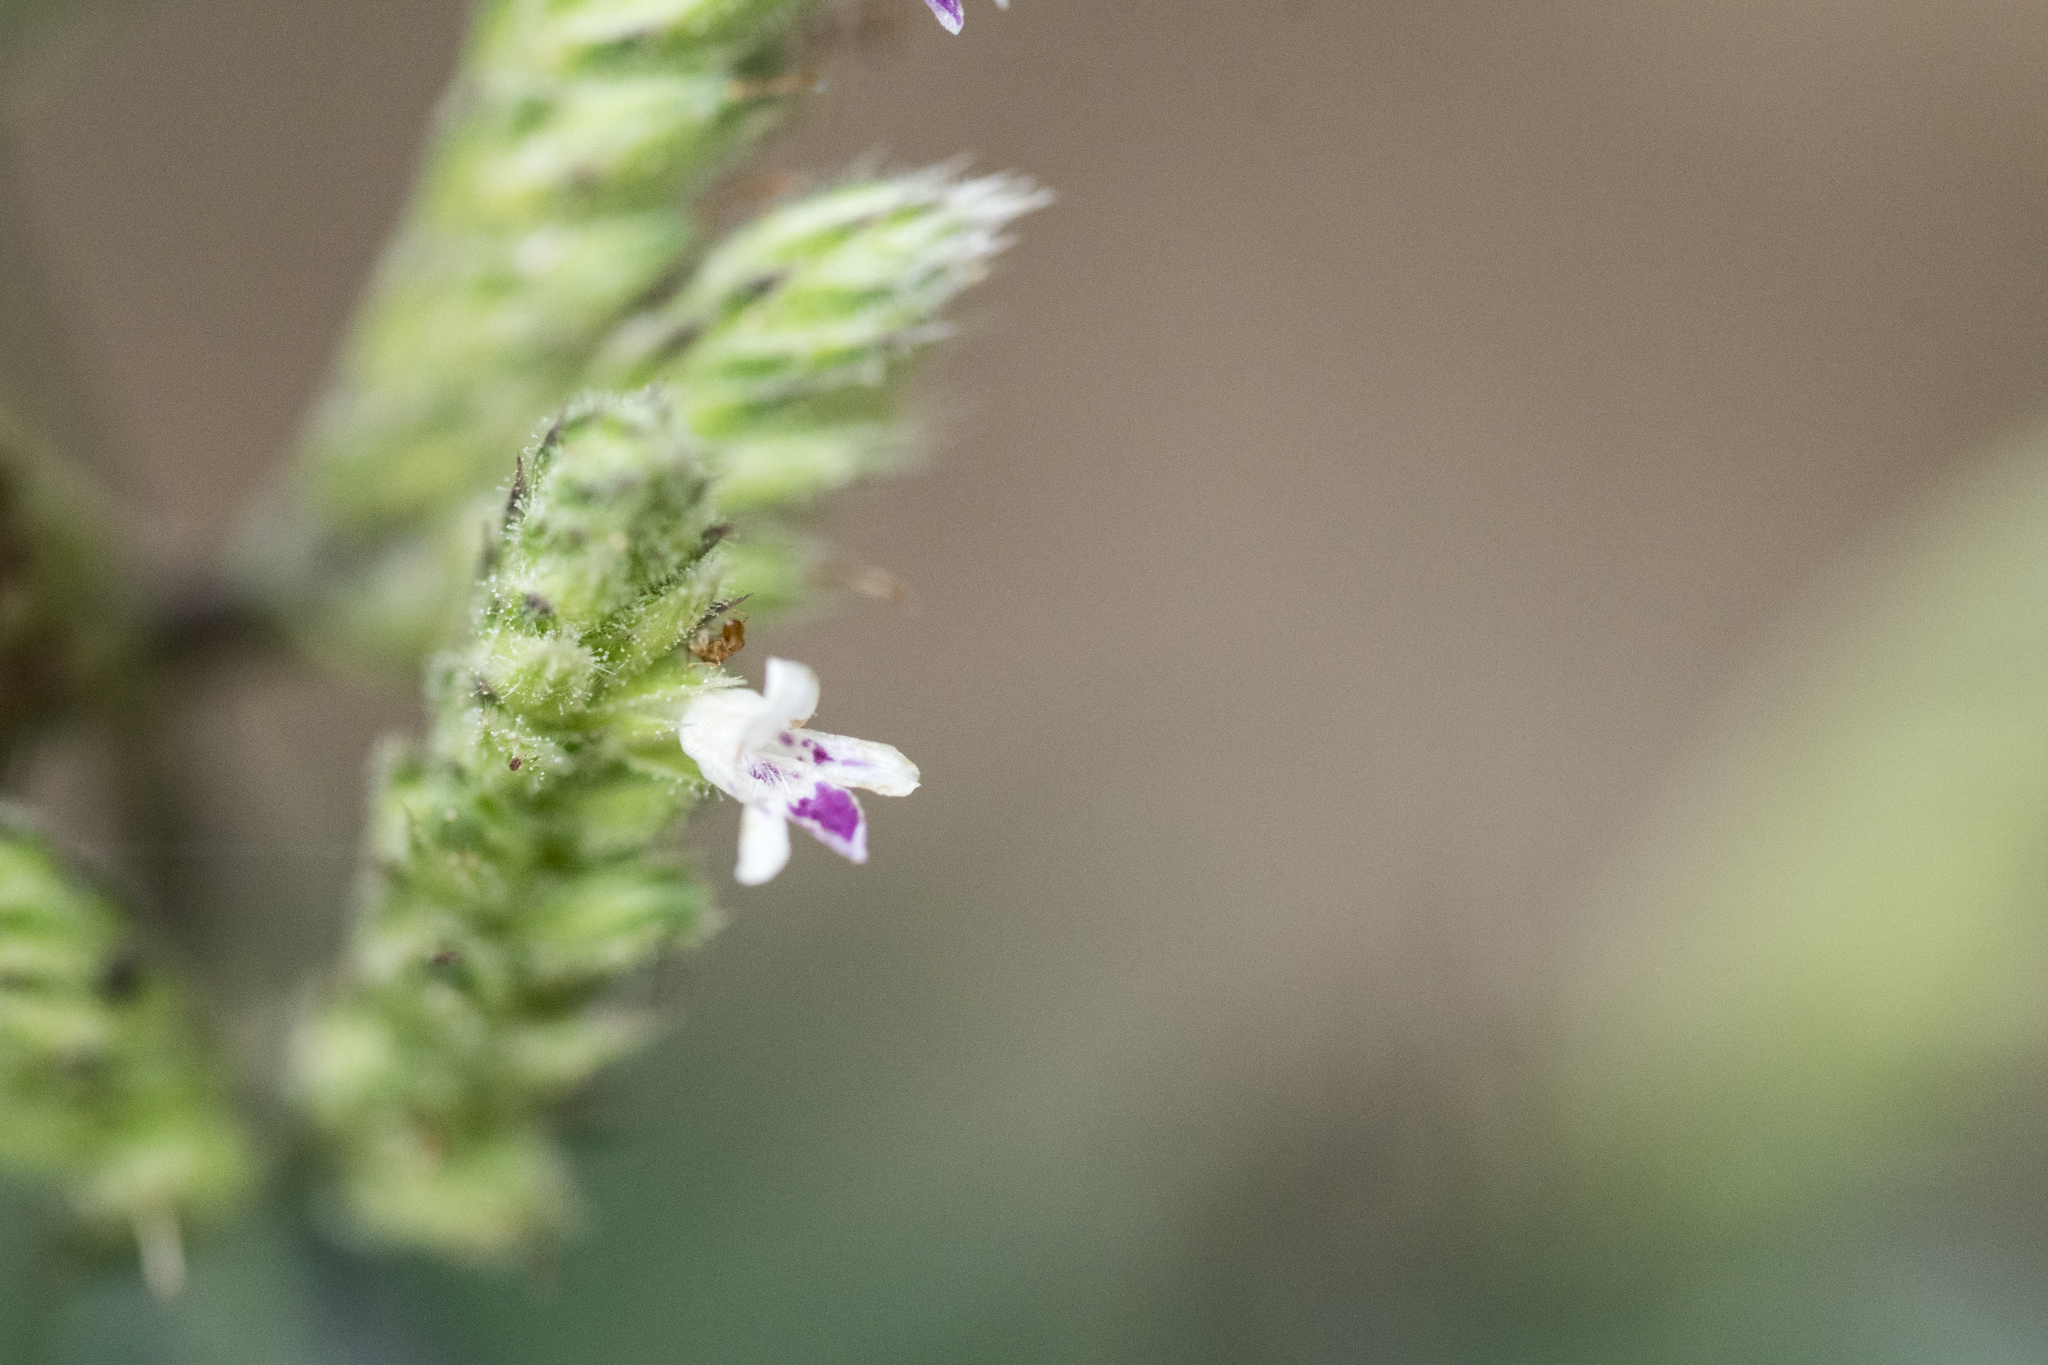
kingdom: Plantae
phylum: Tracheophyta
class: Magnoliopsida
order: Lamiales
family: Acanthaceae
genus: Lepidagathis
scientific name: Lepidagathis formosensis
